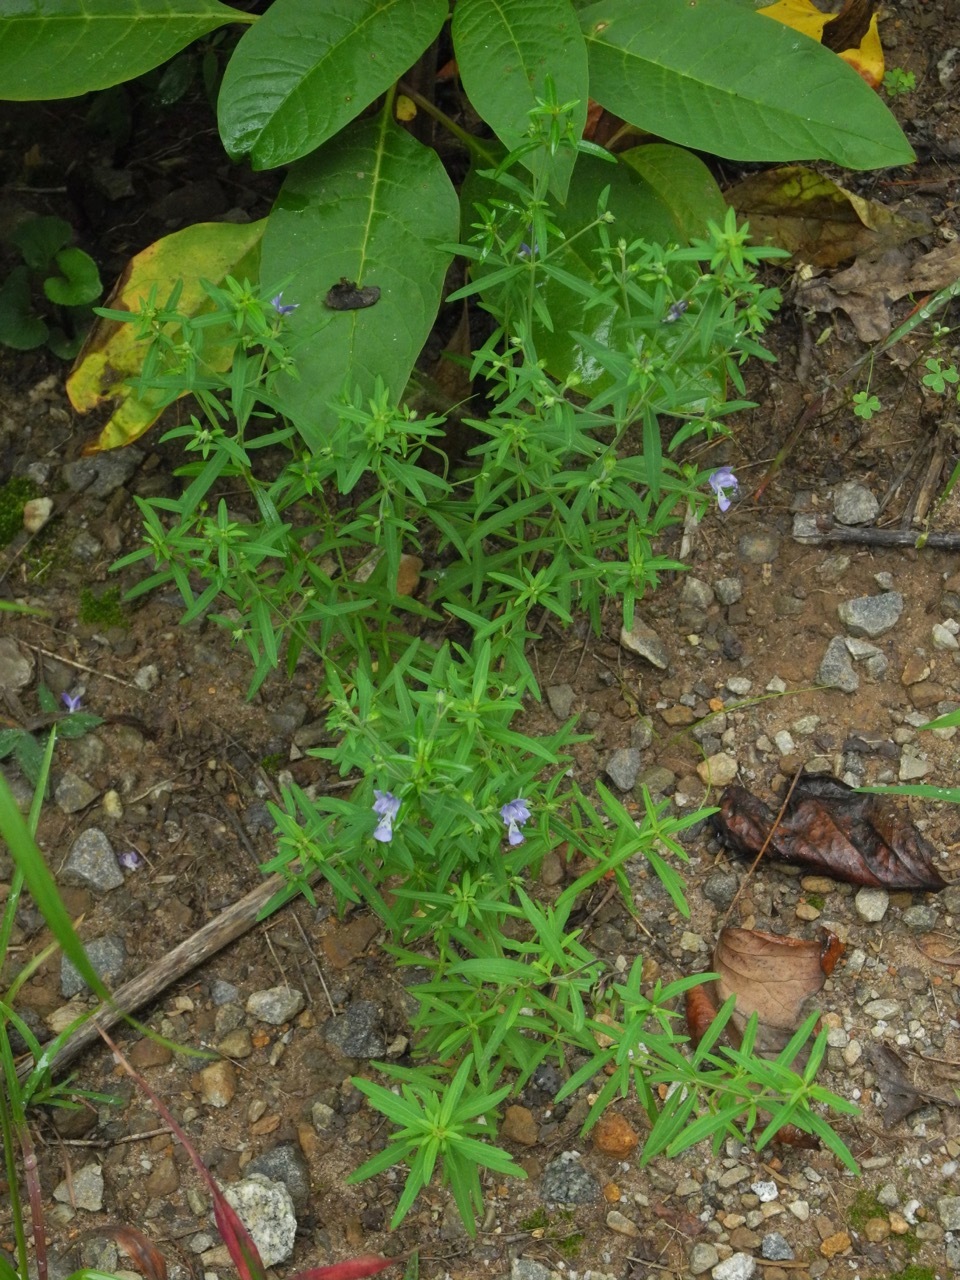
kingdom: Plantae
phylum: Tracheophyta
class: Magnoliopsida
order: Lamiales
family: Lamiaceae
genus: Trichostema
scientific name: Trichostema setaceum
